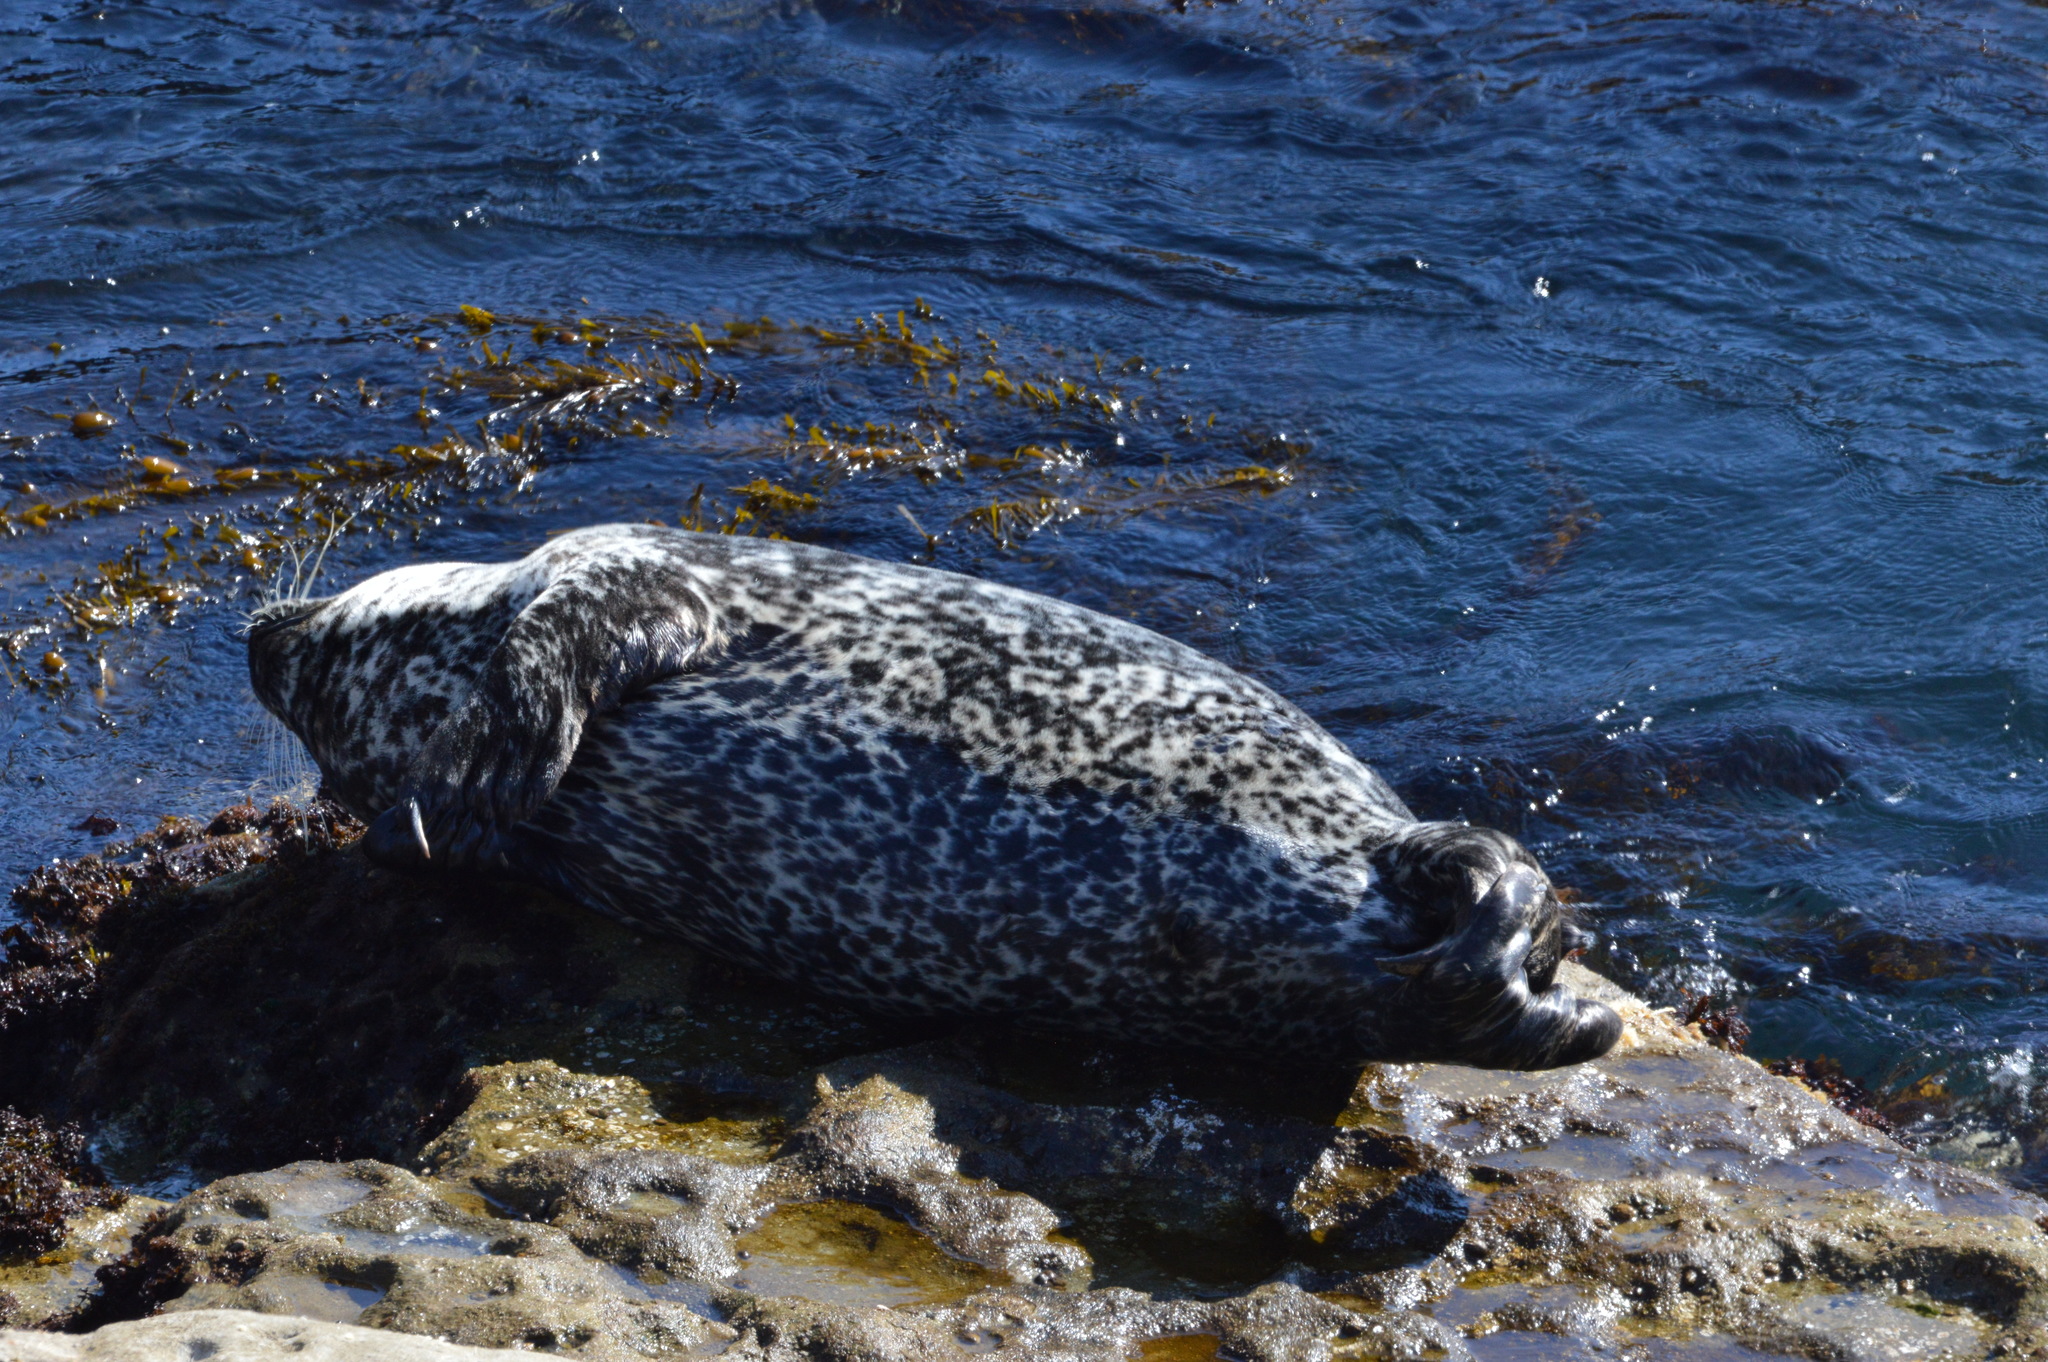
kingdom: Animalia
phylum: Chordata
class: Mammalia
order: Carnivora
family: Phocidae
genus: Phoca
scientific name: Phoca vitulina
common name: Harbor seal
